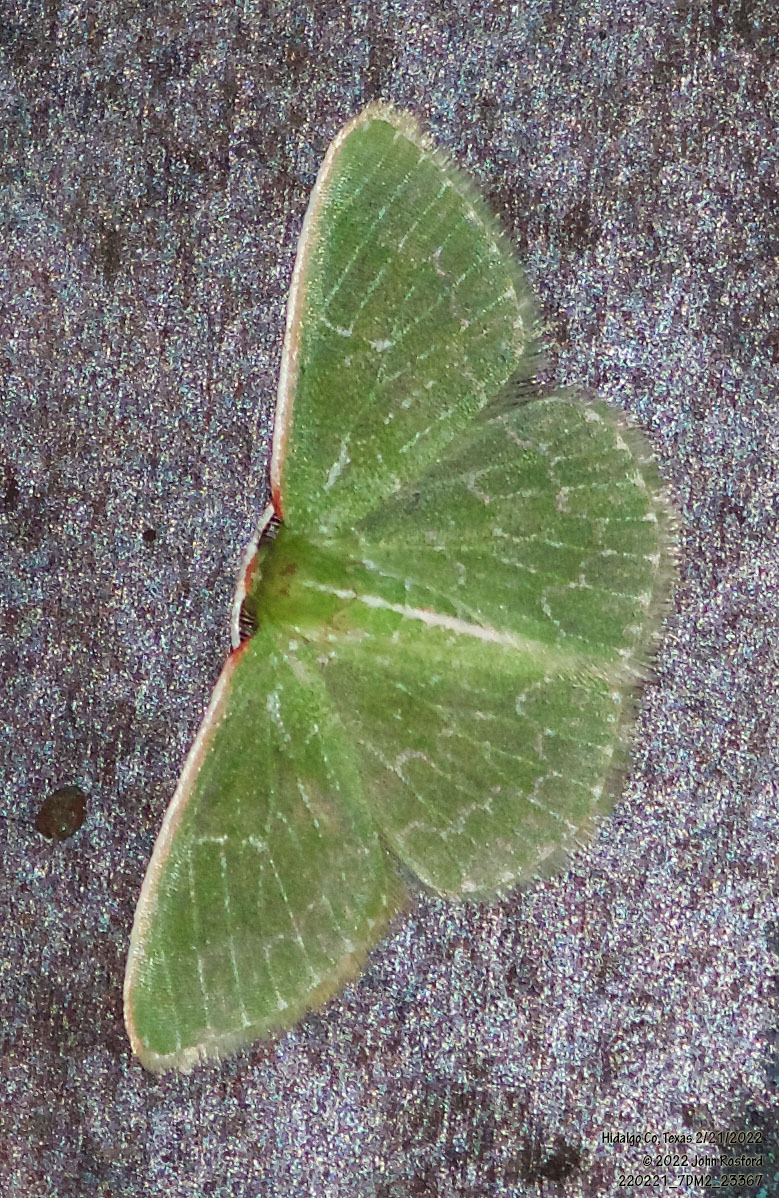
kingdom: Animalia
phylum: Arthropoda
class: Insecta
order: Lepidoptera
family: Geometridae
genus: Synchlora
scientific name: Synchlora frondaria
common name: Southern emerald
